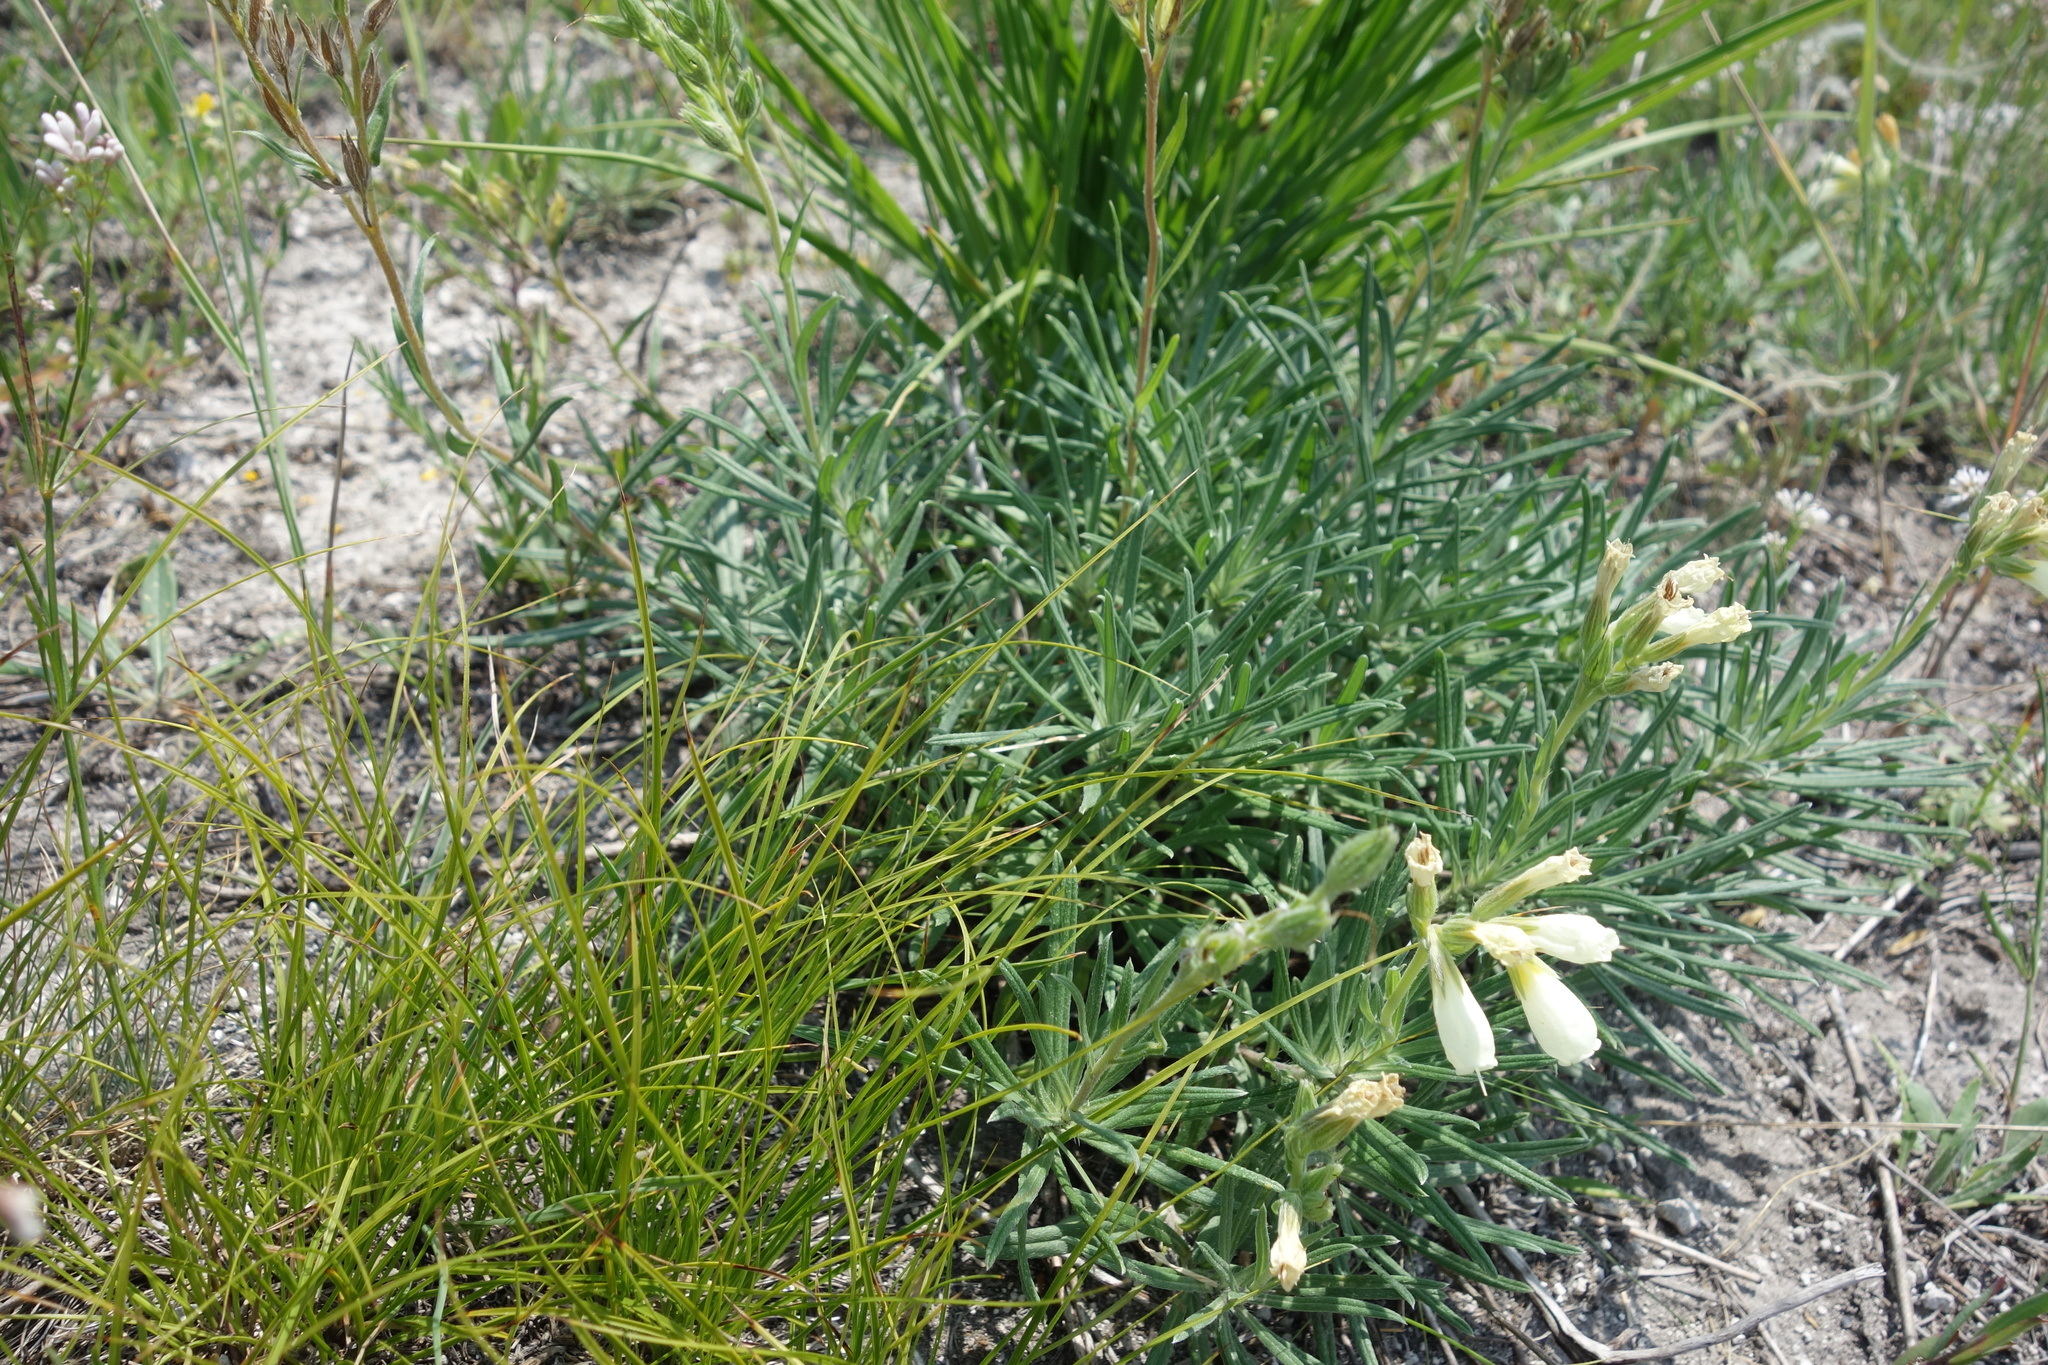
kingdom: Plantae
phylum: Tracheophyta
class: Magnoliopsida
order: Boraginales
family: Boraginaceae
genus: Onosma
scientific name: Onosma simplicissima
